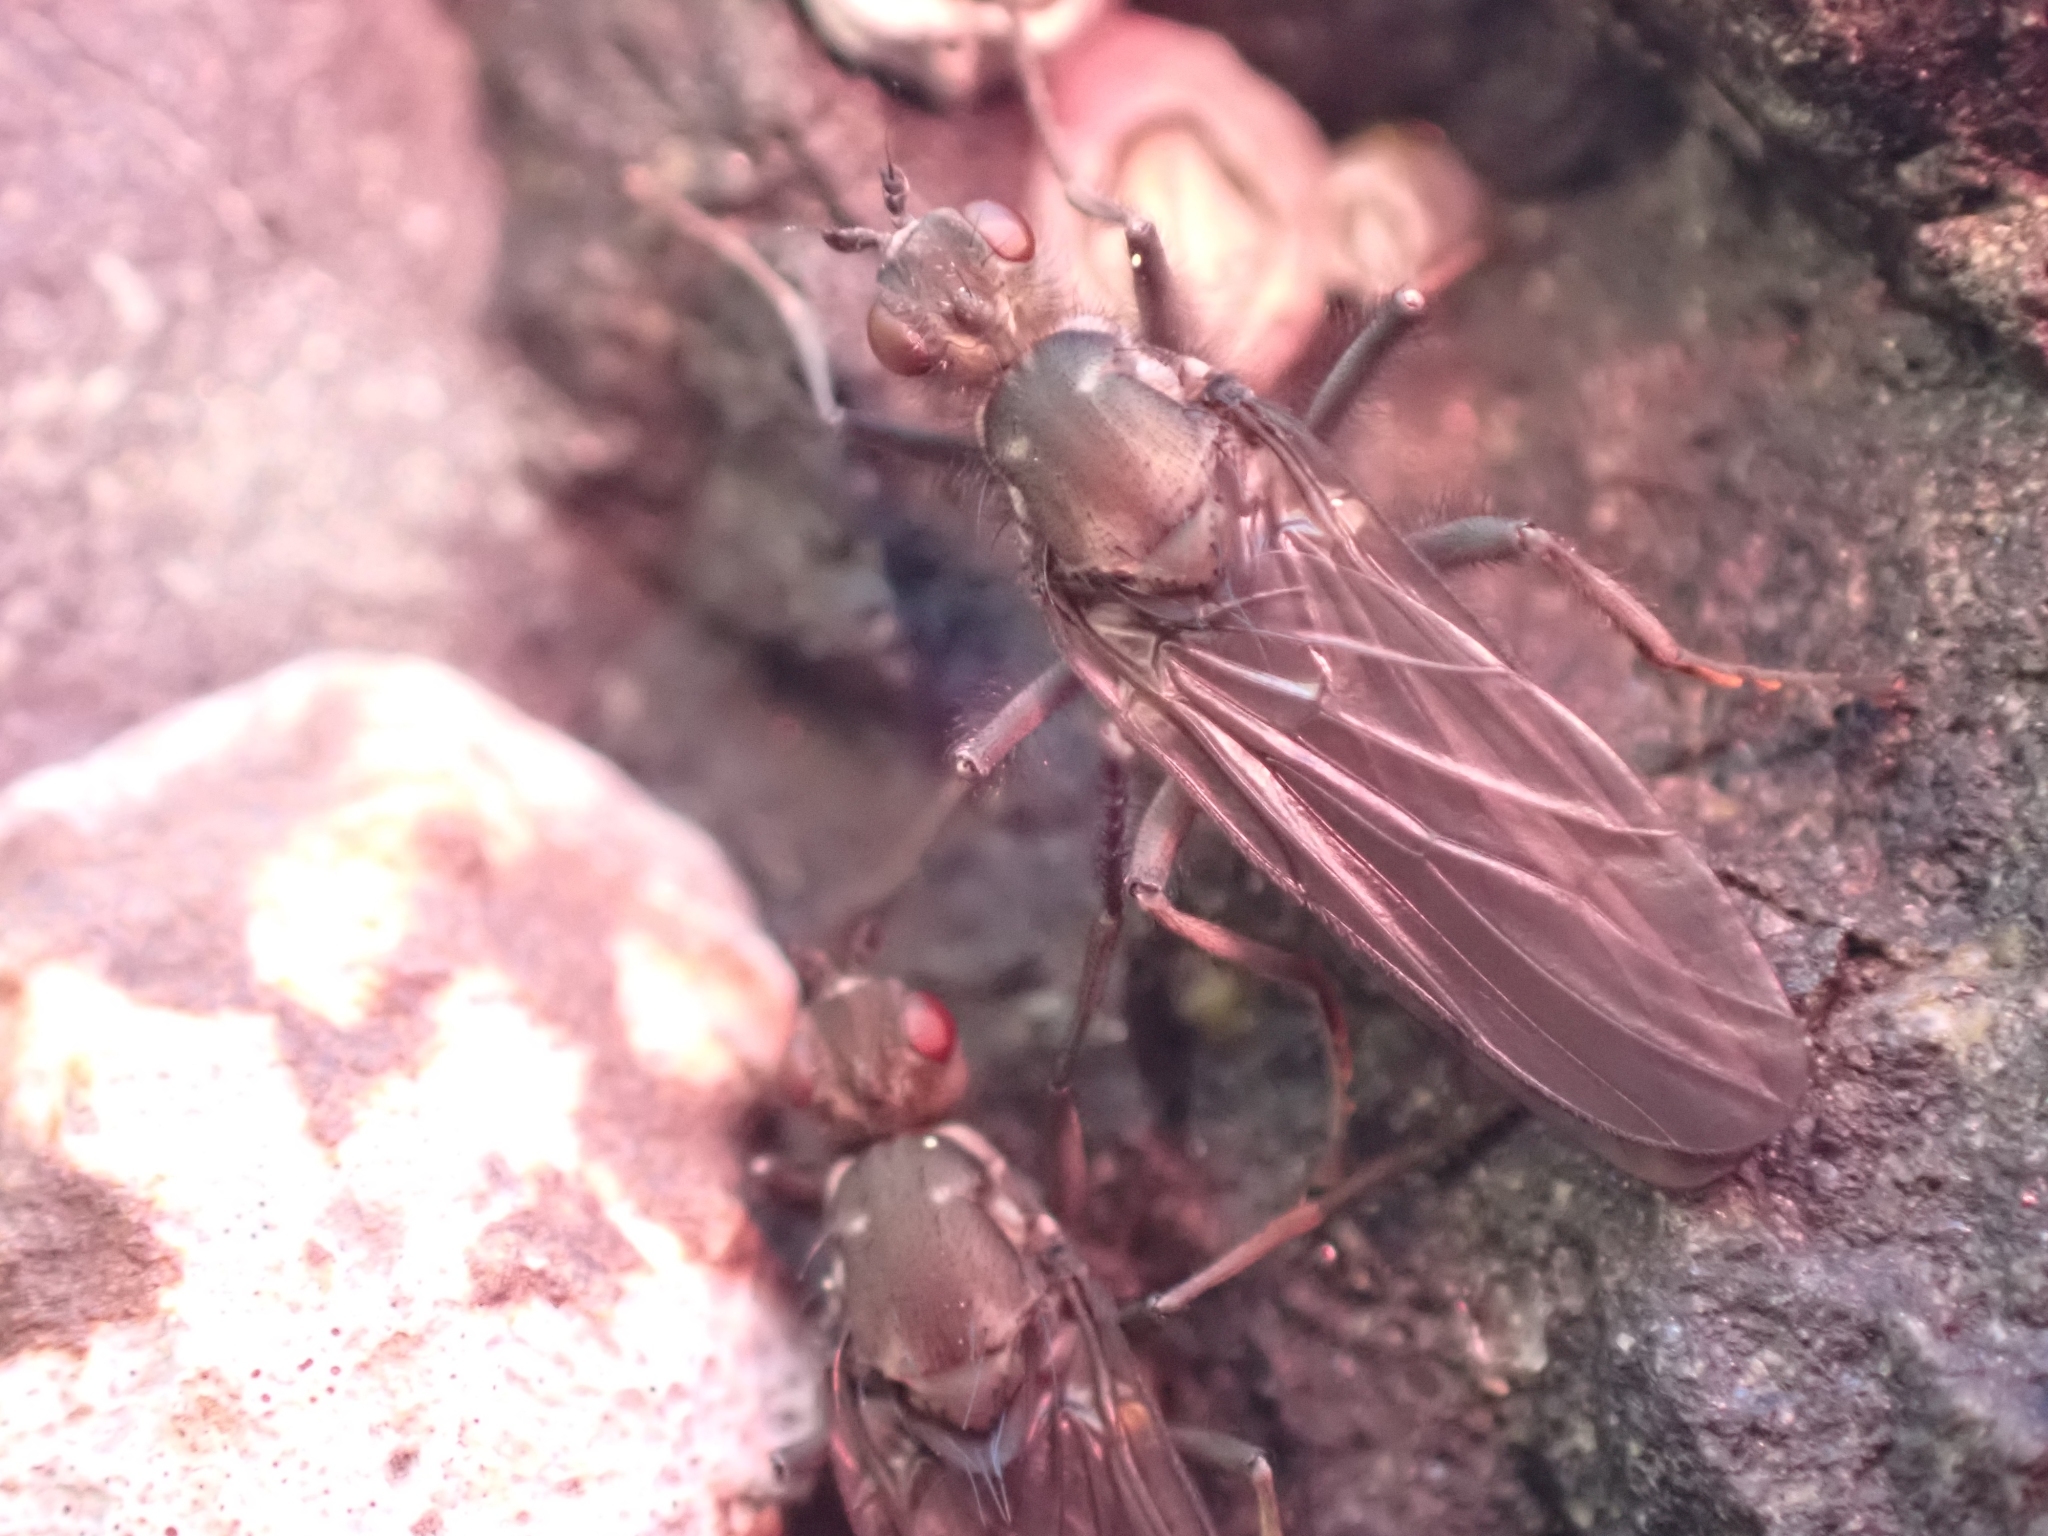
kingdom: Animalia
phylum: Arthropoda
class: Insecta
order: Diptera
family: Dryomyzidae
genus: Oedoparena
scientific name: Oedoparena glauca
